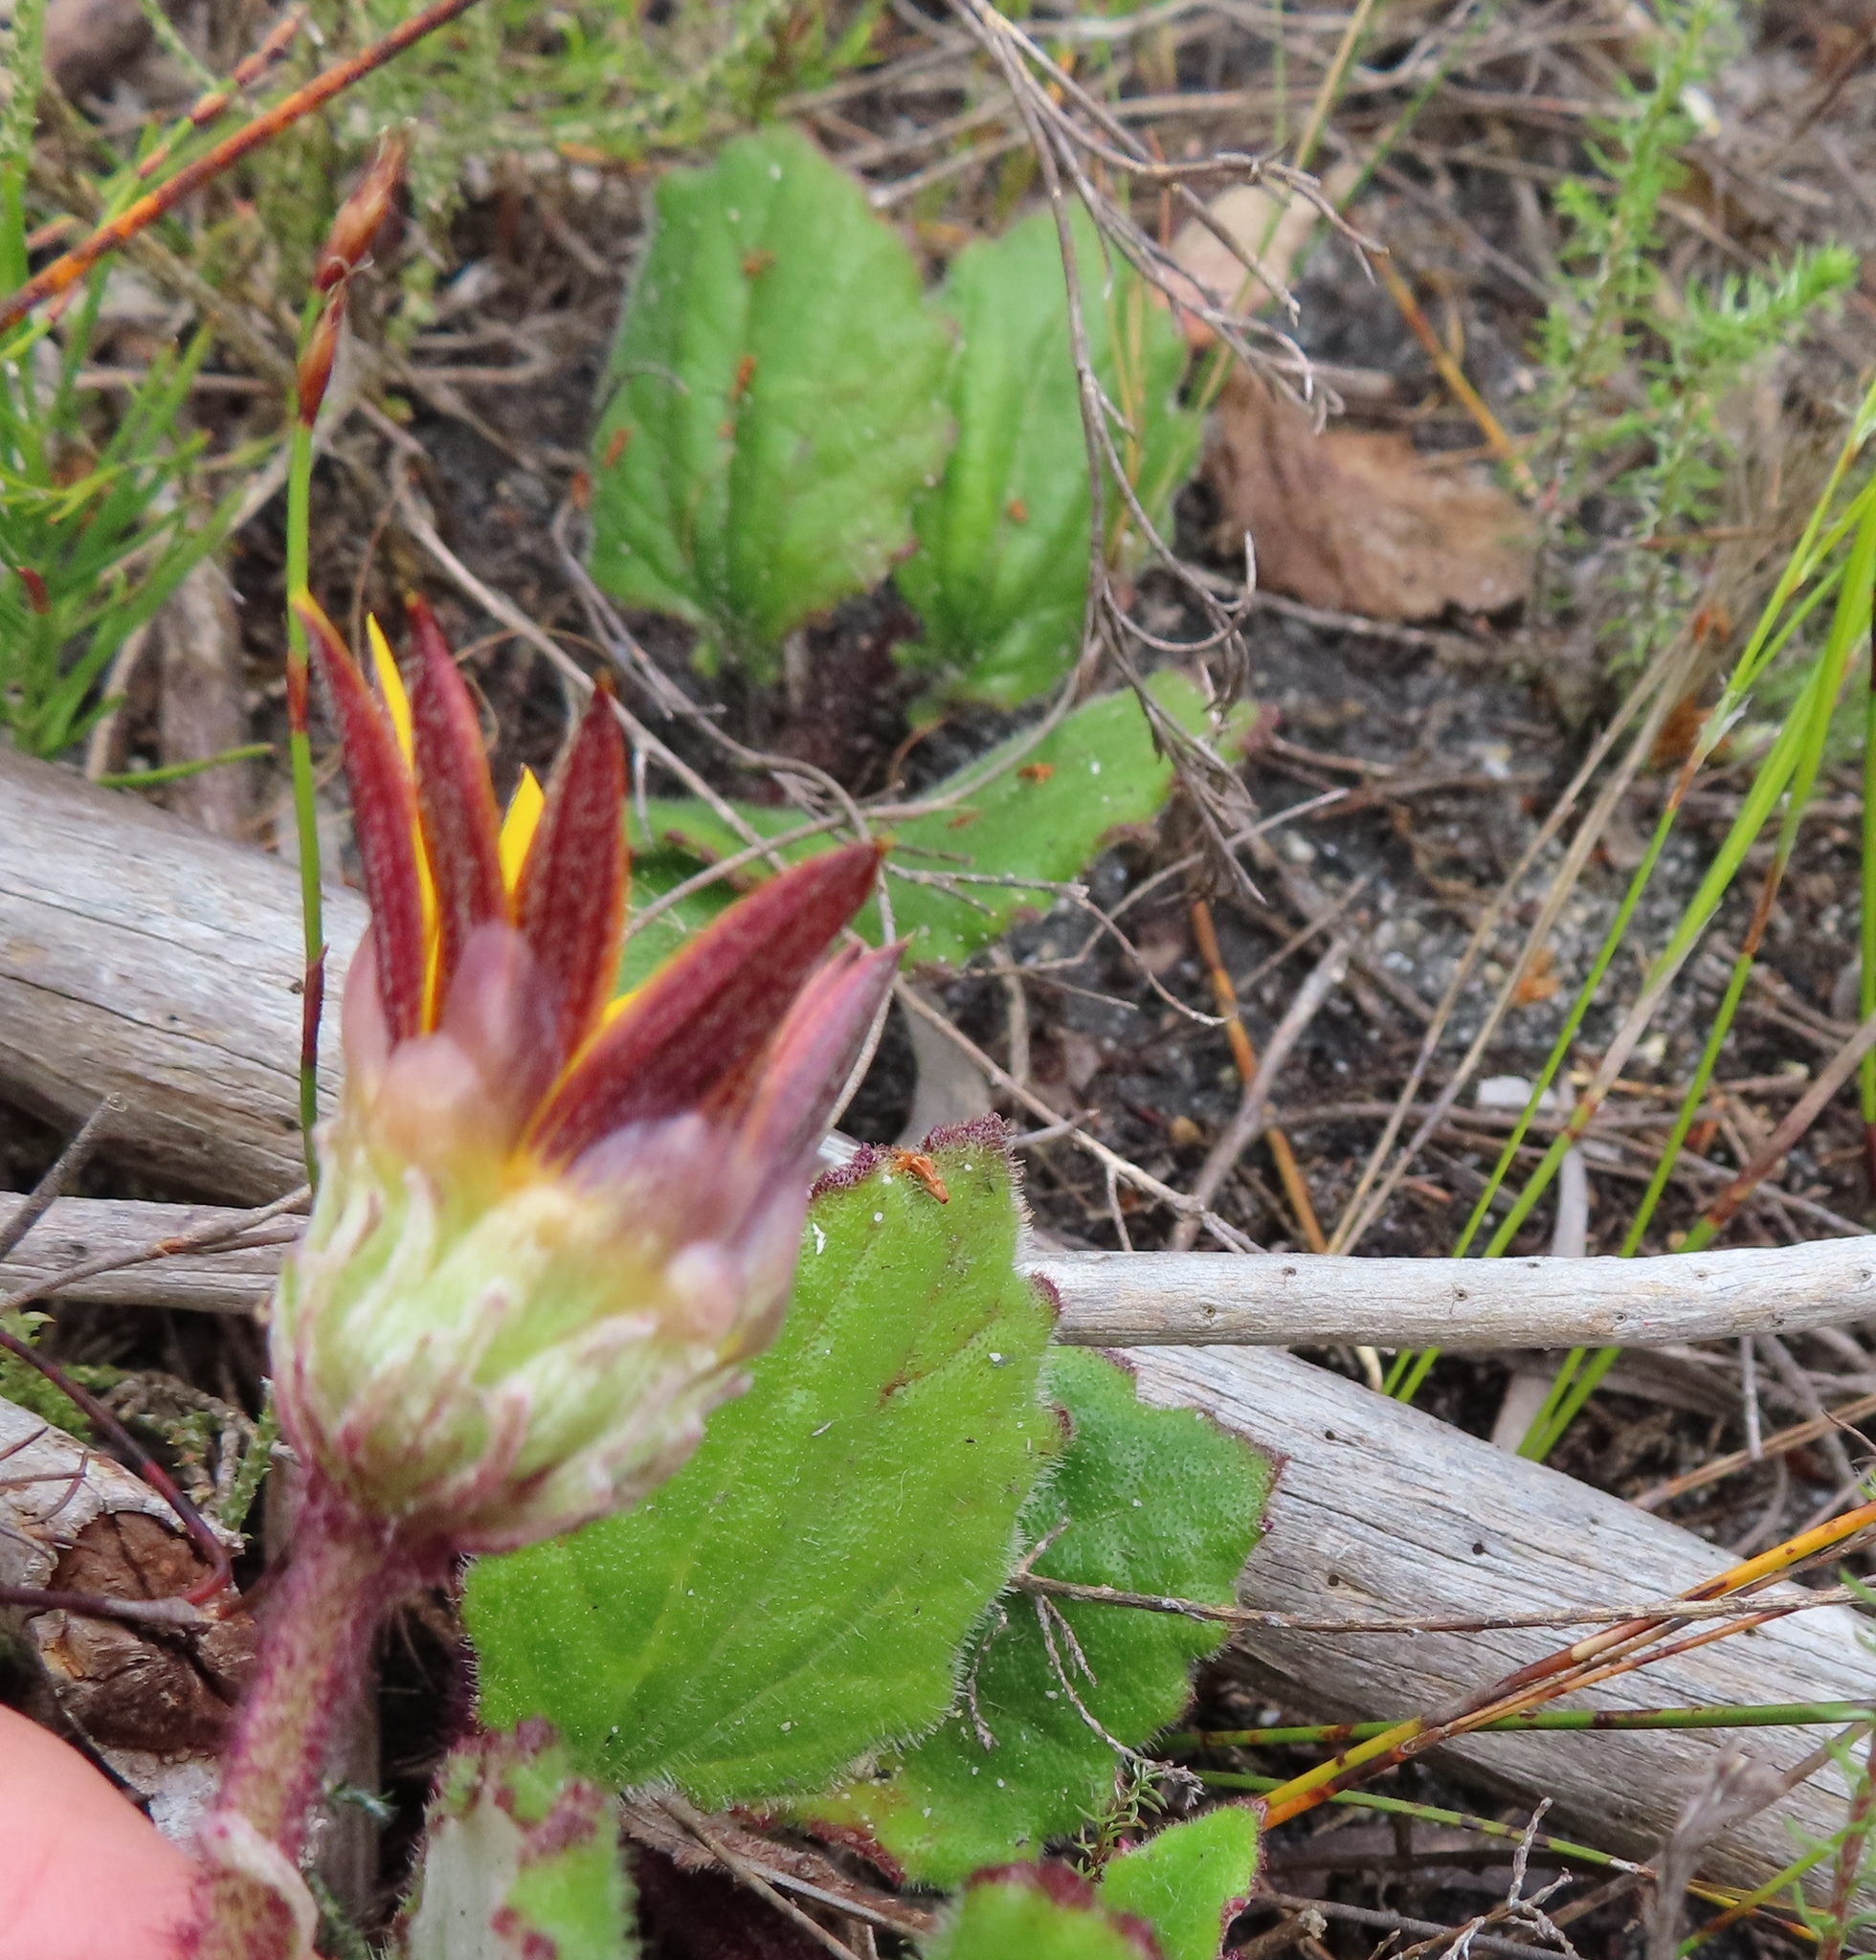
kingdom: Plantae
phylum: Tracheophyta
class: Magnoliopsida
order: Asterales
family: Asteraceae
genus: Arctotis
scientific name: Arctotis angustifolia
